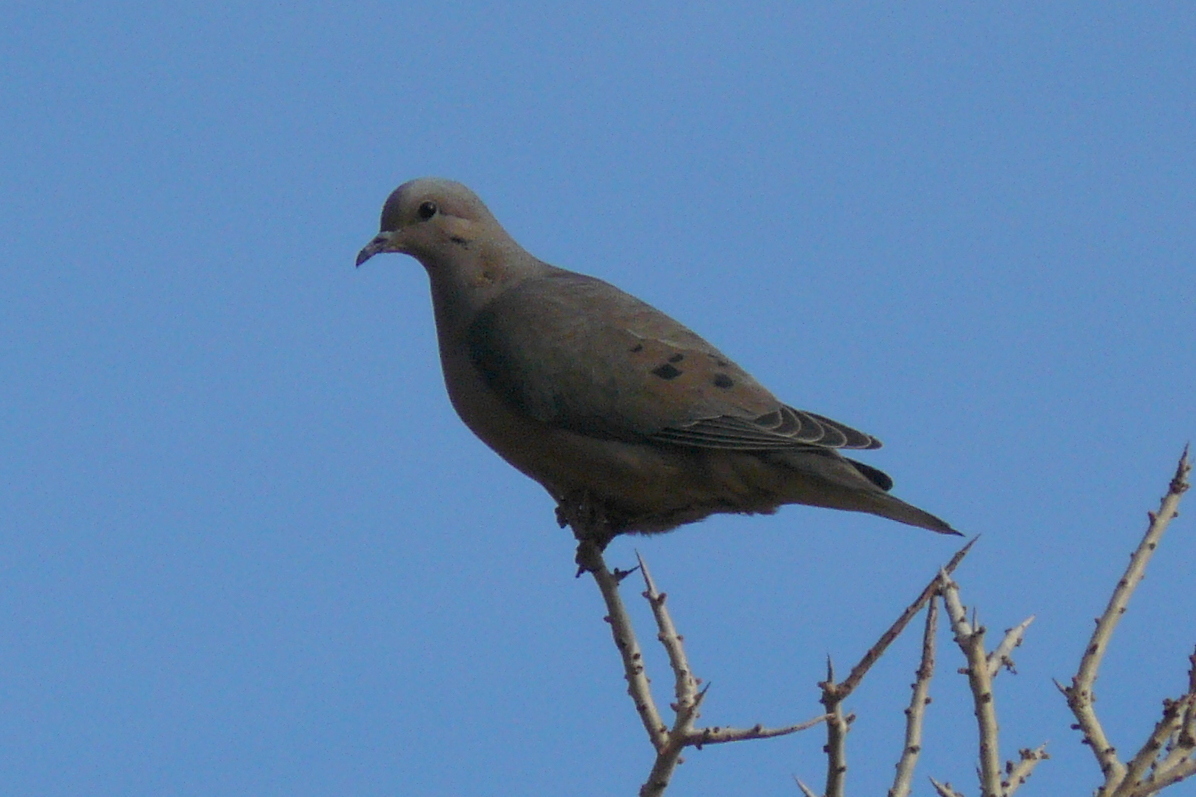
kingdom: Animalia
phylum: Chordata
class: Aves
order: Columbiformes
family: Columbidae
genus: Zenaida
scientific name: Zenaida auriculata
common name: Eared dove
